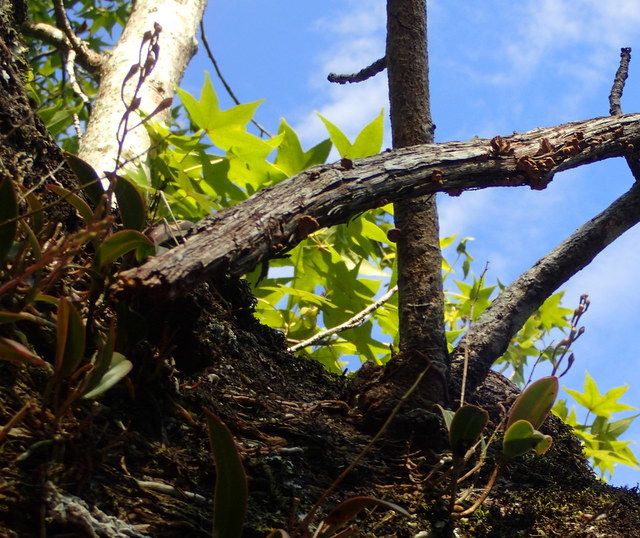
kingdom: Plantae
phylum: Tracheophyta
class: Liliopsida
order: Asparagales
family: Orchidaceae
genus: Epidendrum
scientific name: Epidendrum conopseum
